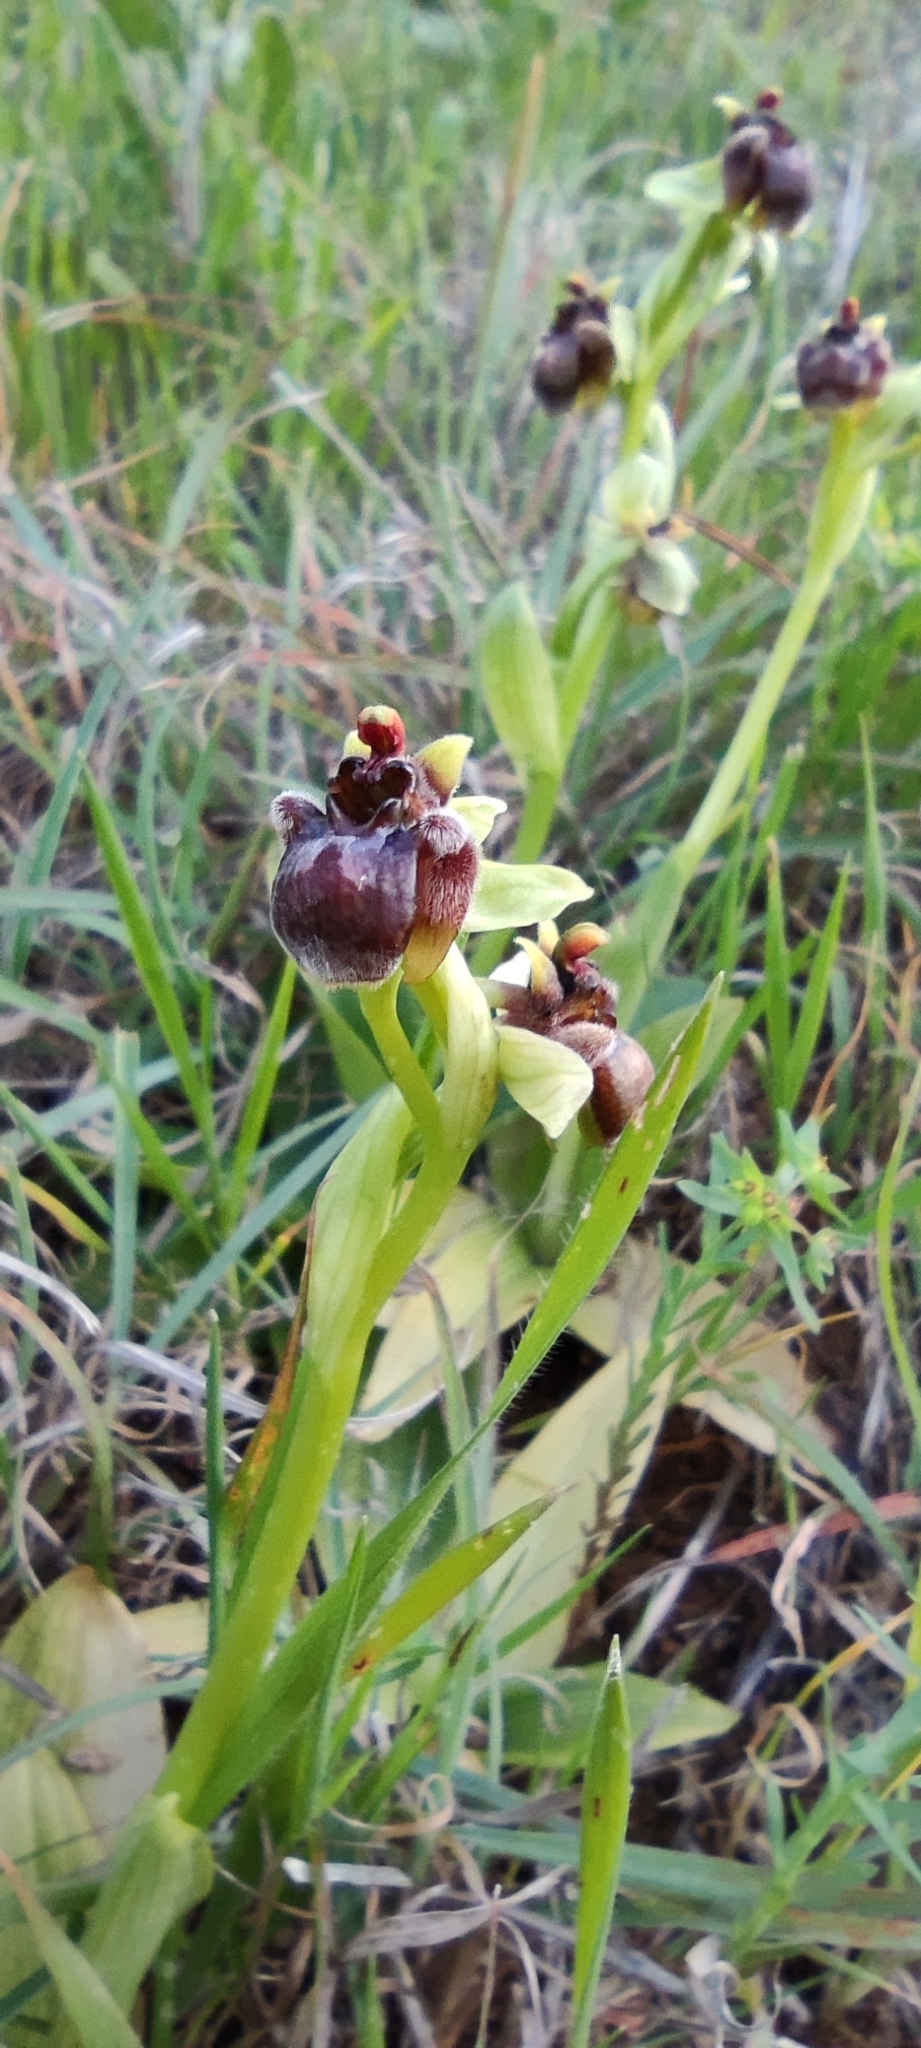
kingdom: Plantae
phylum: Tracheophyta
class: Liliopsida
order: Asparagales
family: Orchidaceae
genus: Ophrys
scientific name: Ophrys bombyliflora
